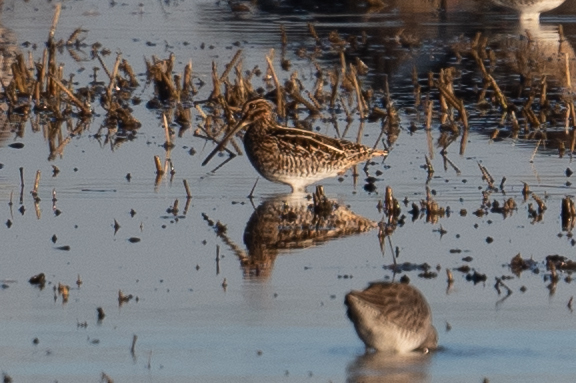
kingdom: Animalia
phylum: Chordata
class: Aves
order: Charadriiformes
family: Scolopacidae
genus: Gallinago
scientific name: Gallinago delicata
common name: Wilson's snipe
